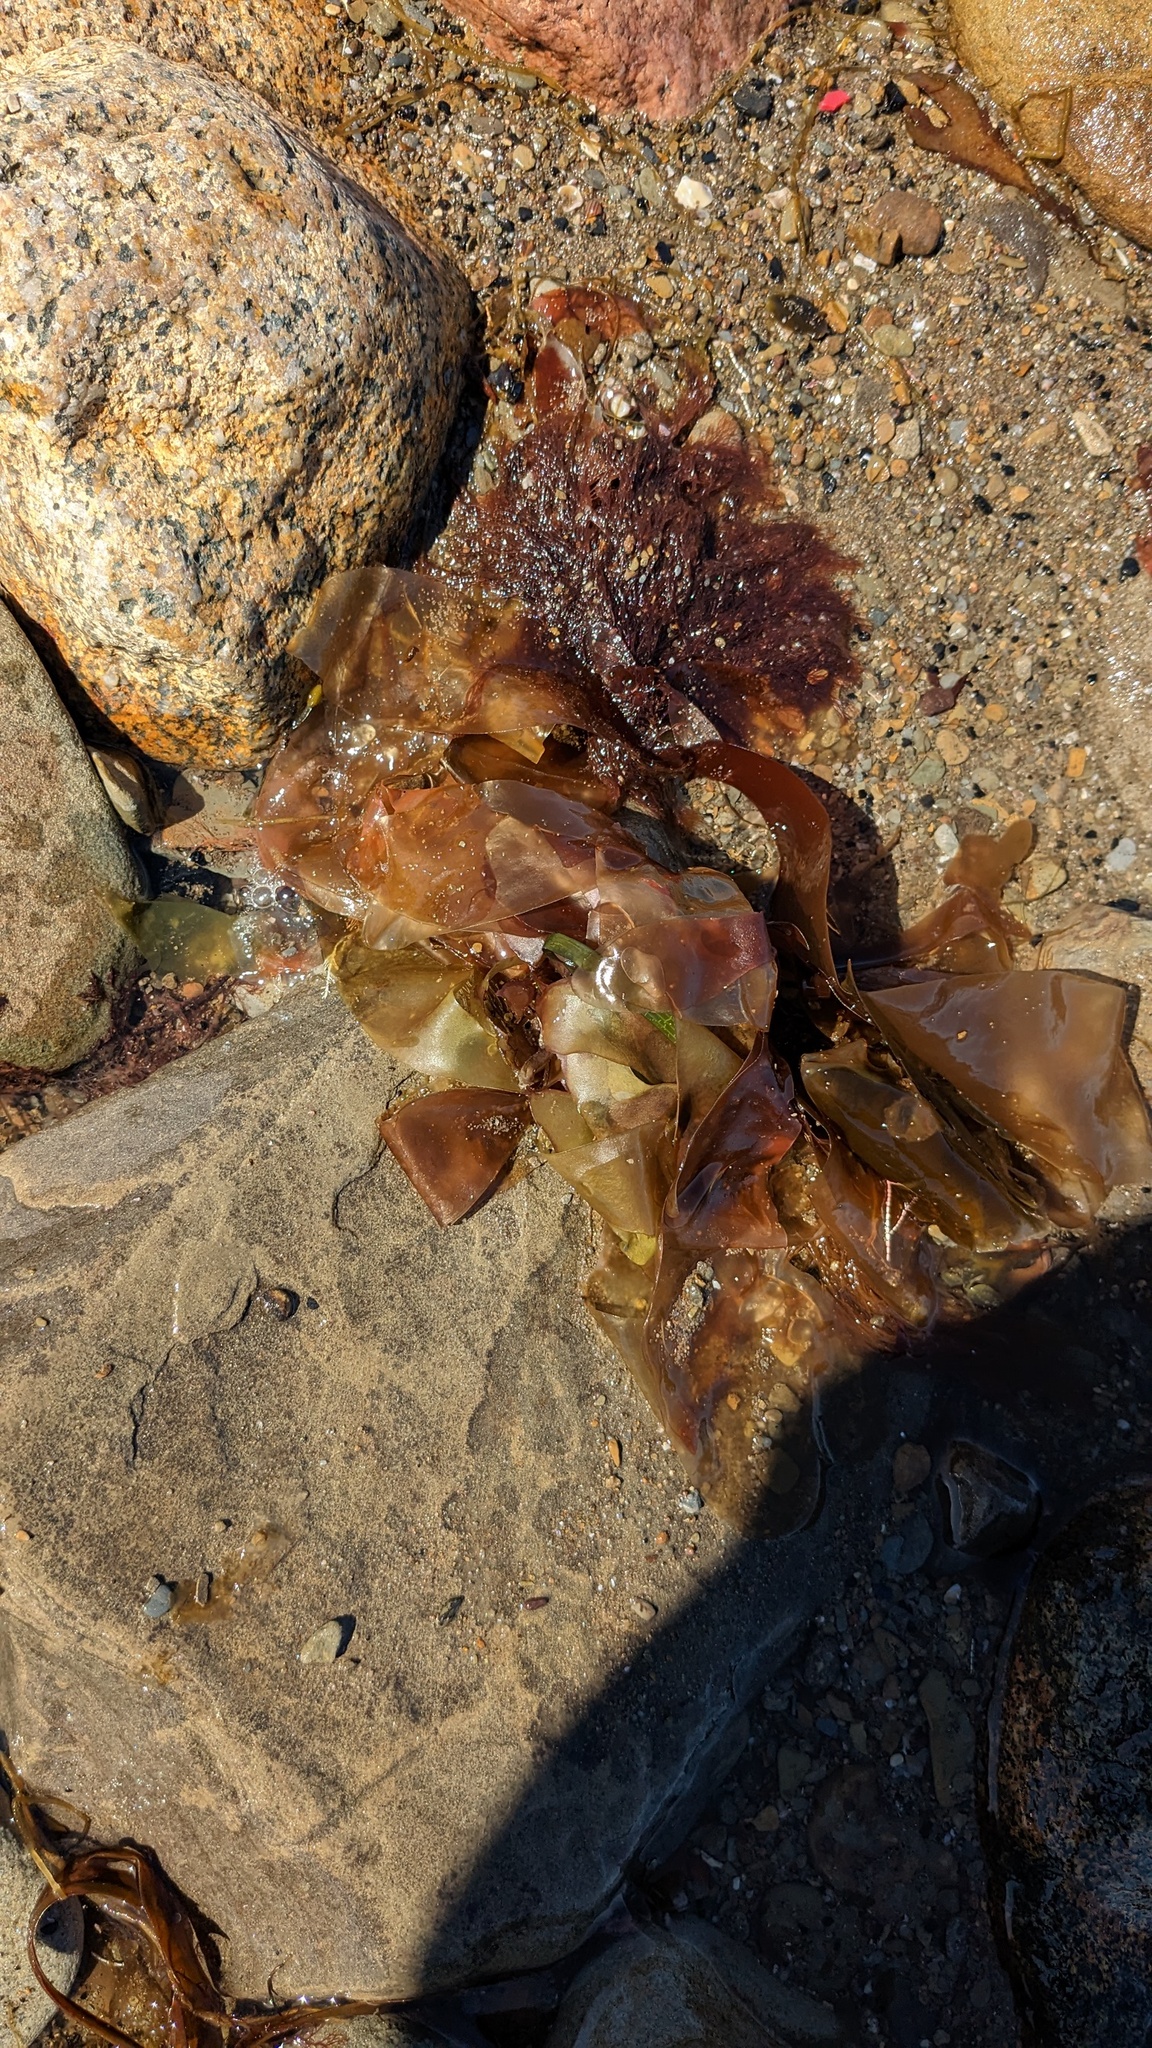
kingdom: Plantae
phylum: Rhodophyta
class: Florideophyceae
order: Palmariales
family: Palmariaceae
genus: Palmaria
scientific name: Palmaria palmata
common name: Dulse
